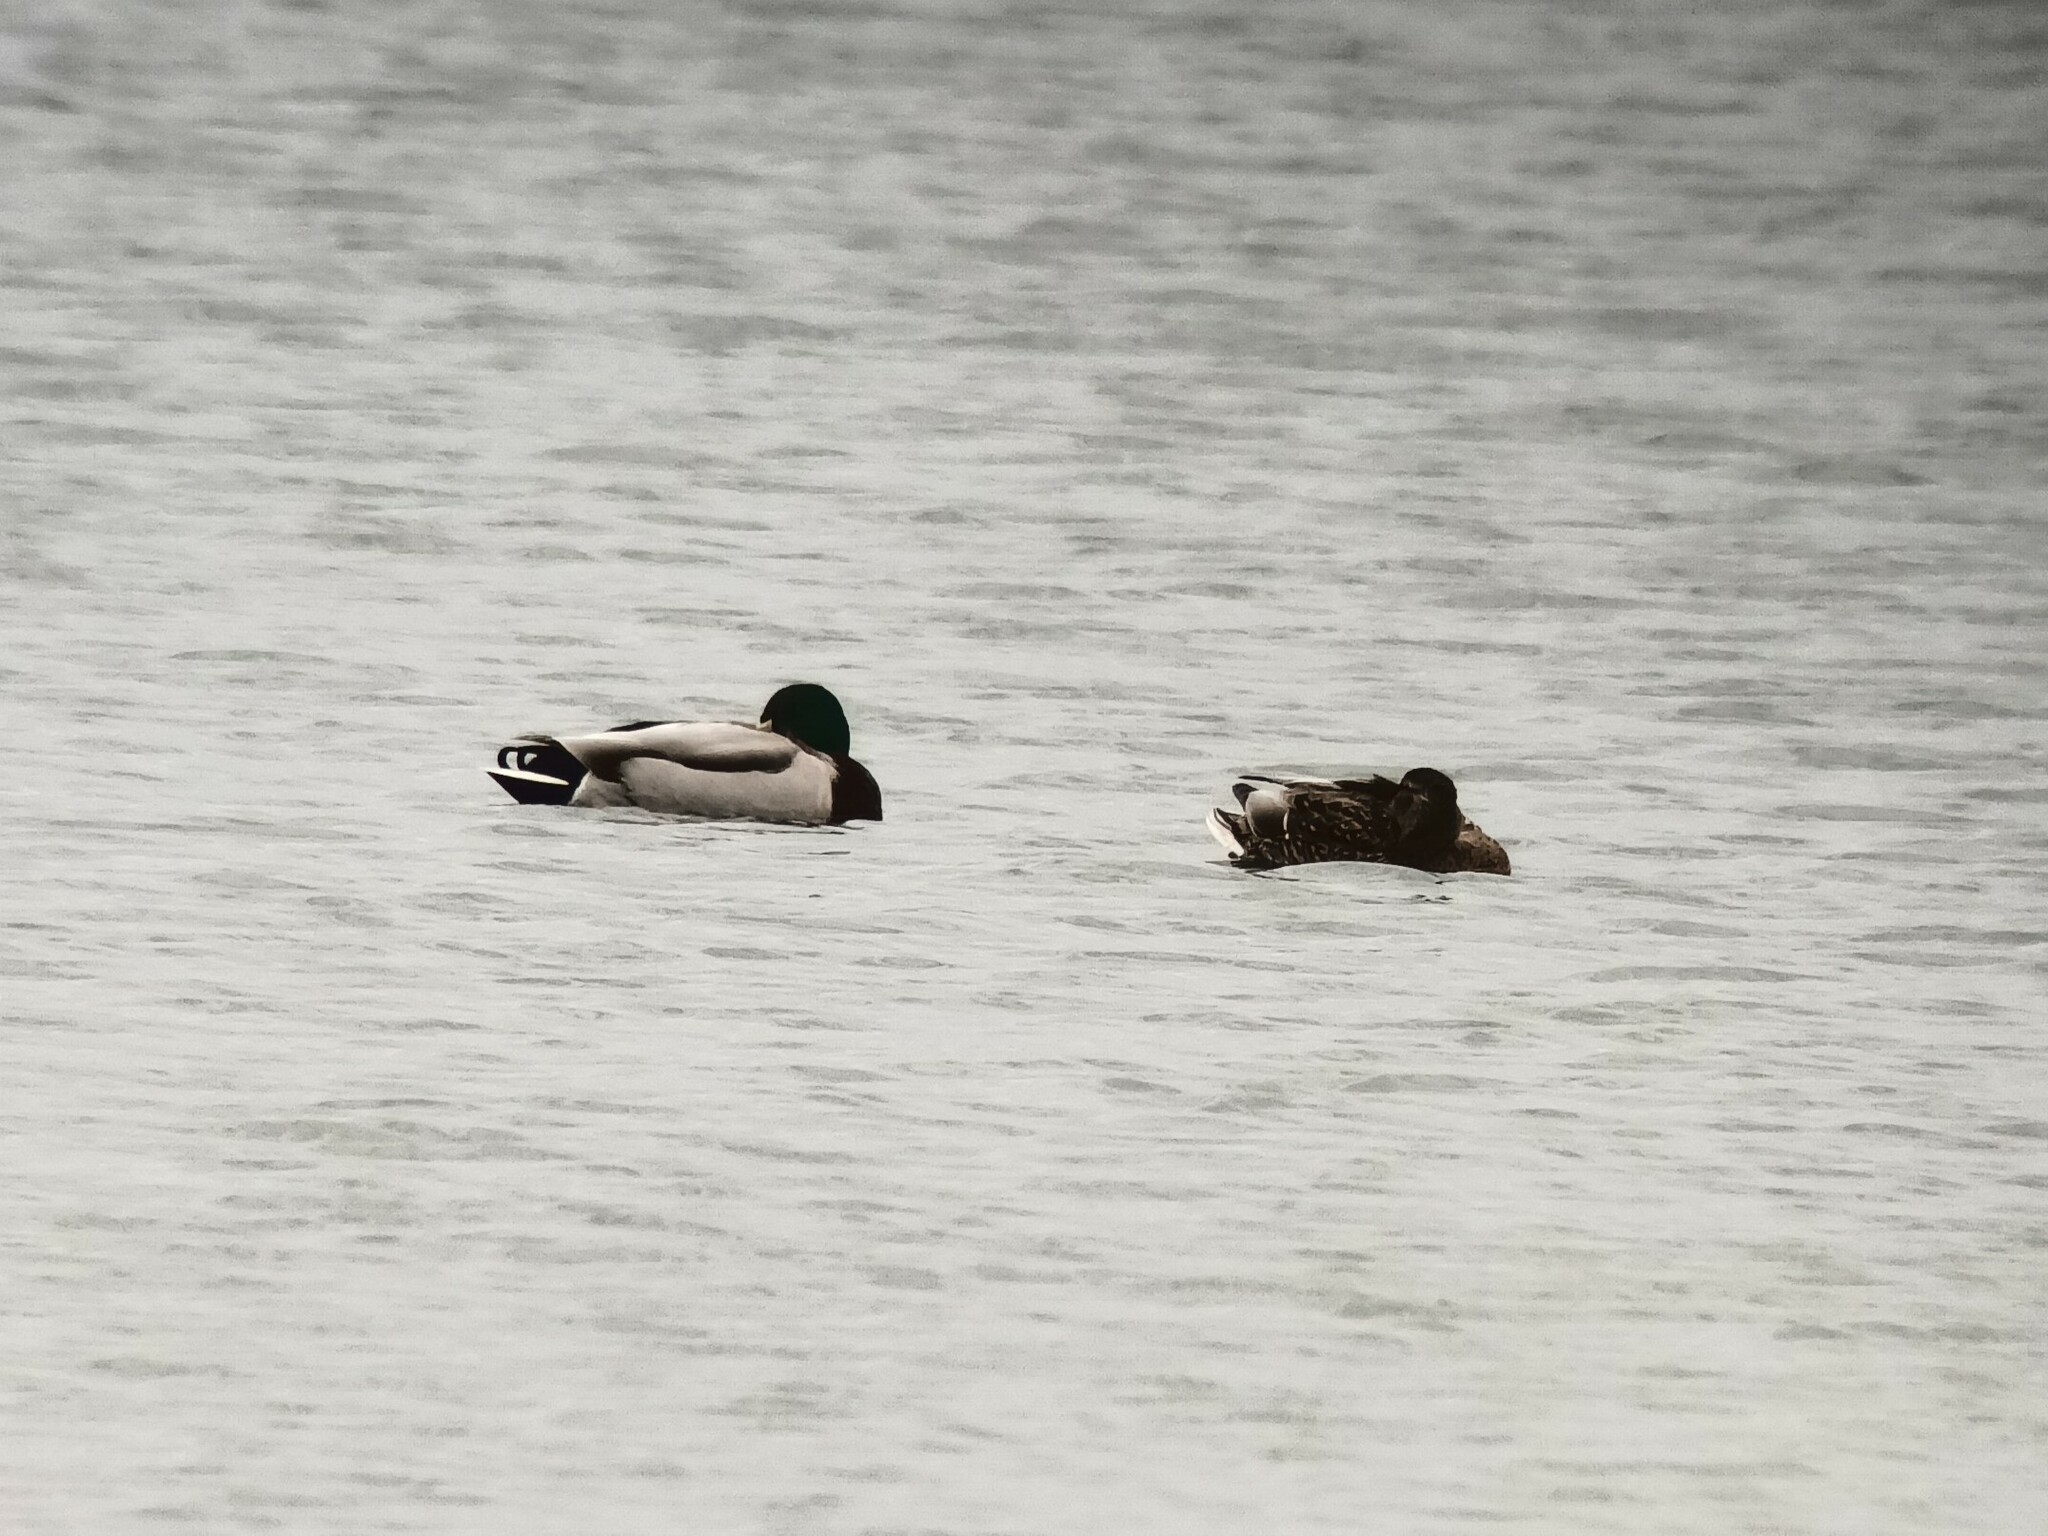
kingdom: Animalia
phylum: Chordata
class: Aves
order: Anseriformes
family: Anatidae
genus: Anas
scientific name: Anas platyrhynchos
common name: Mallard
